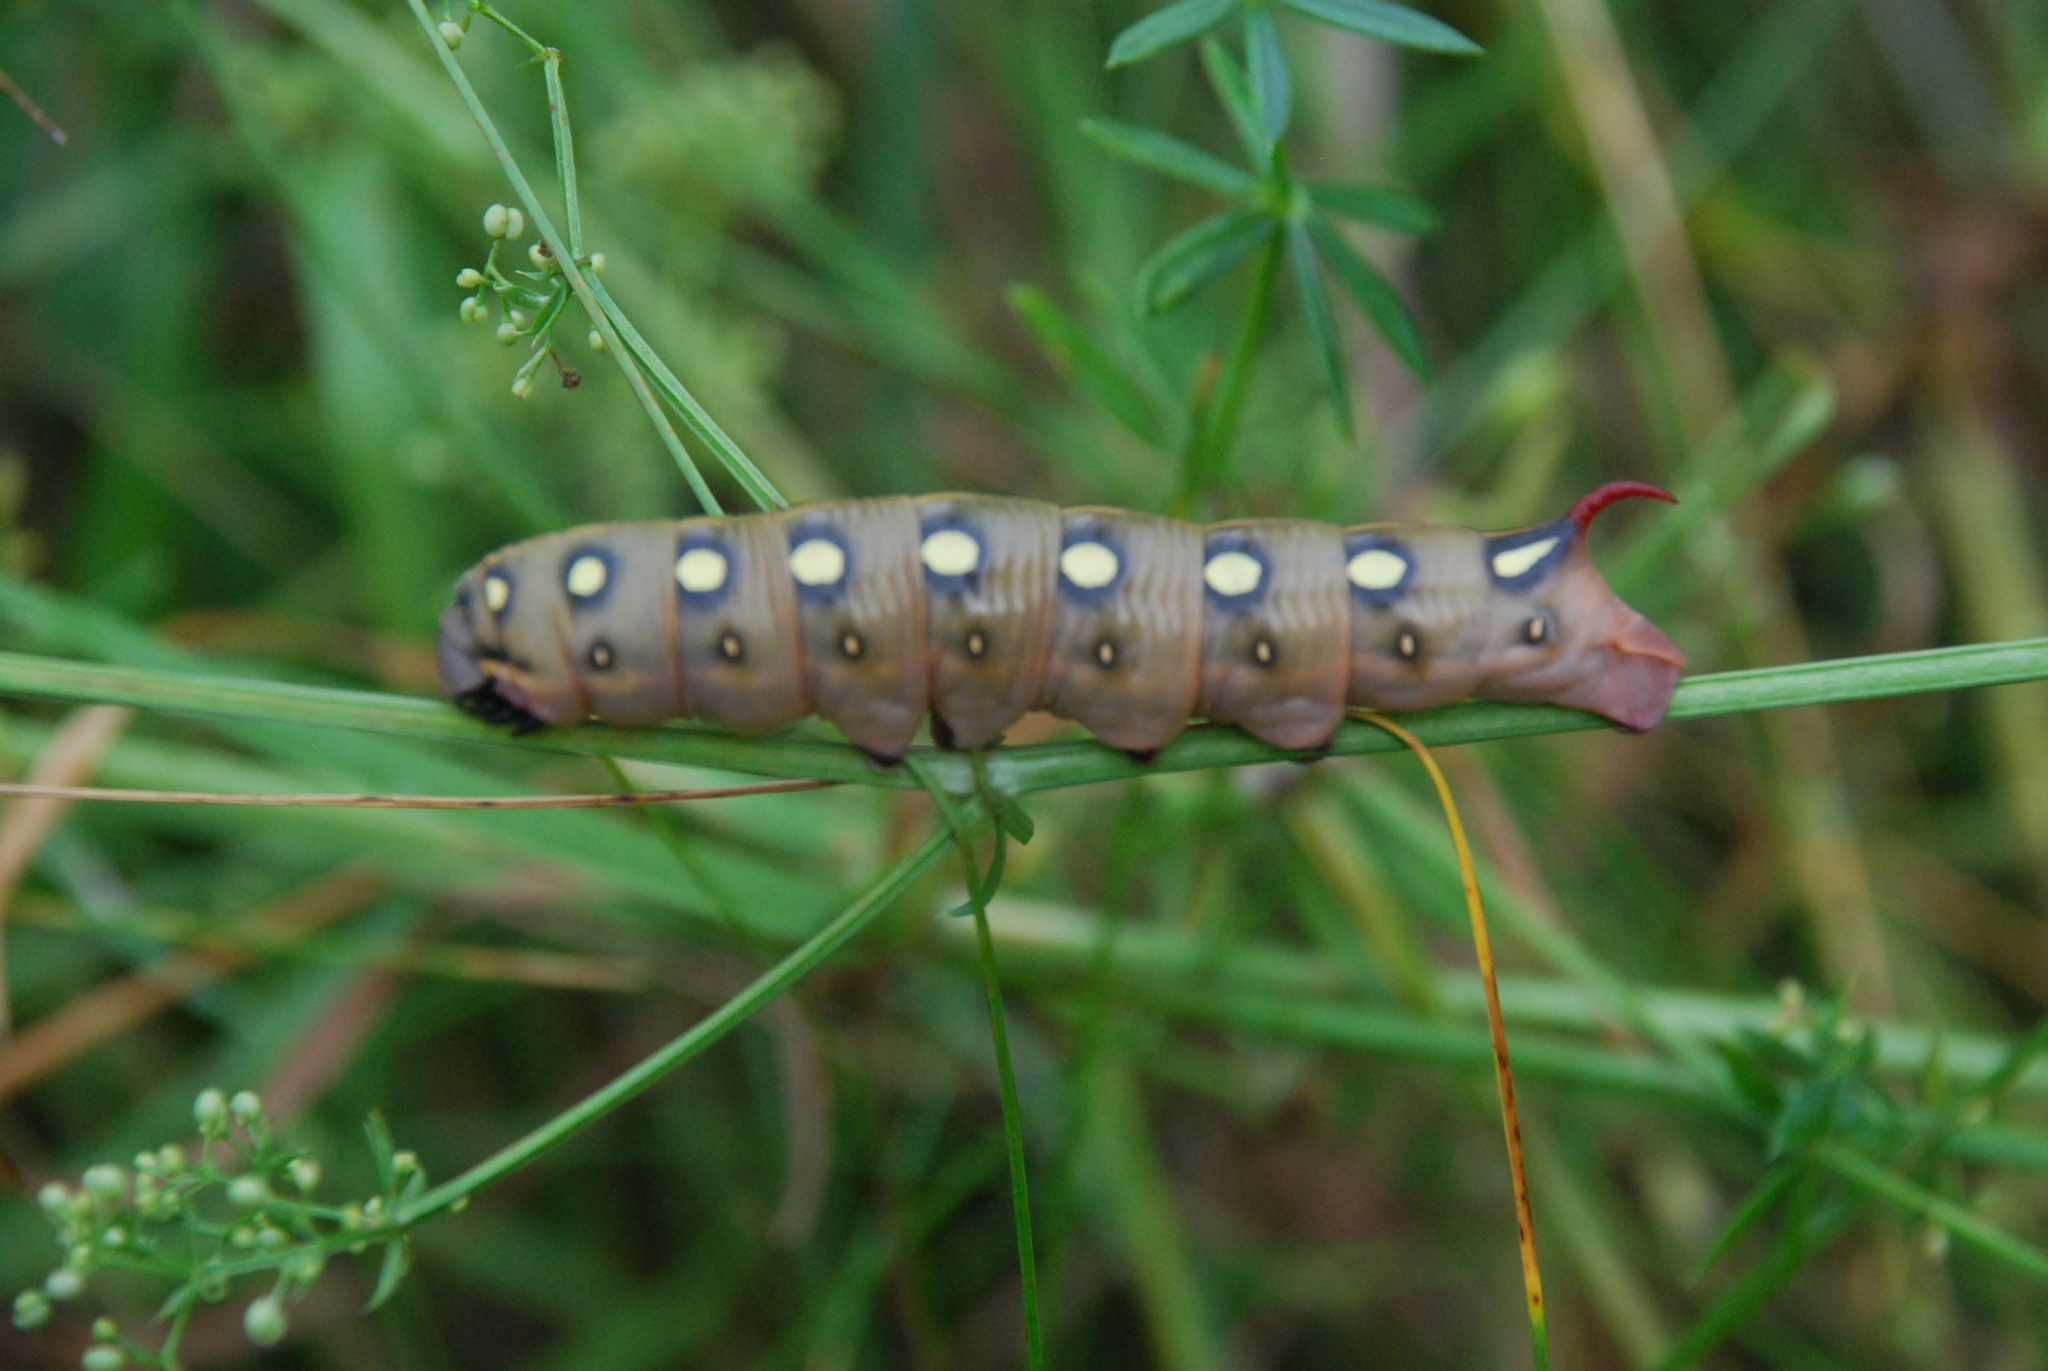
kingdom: Animalia
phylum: Arthropoda
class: Insecta
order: Lepidoptera
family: Sphingidae
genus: Hyles
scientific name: Hyles gallii
